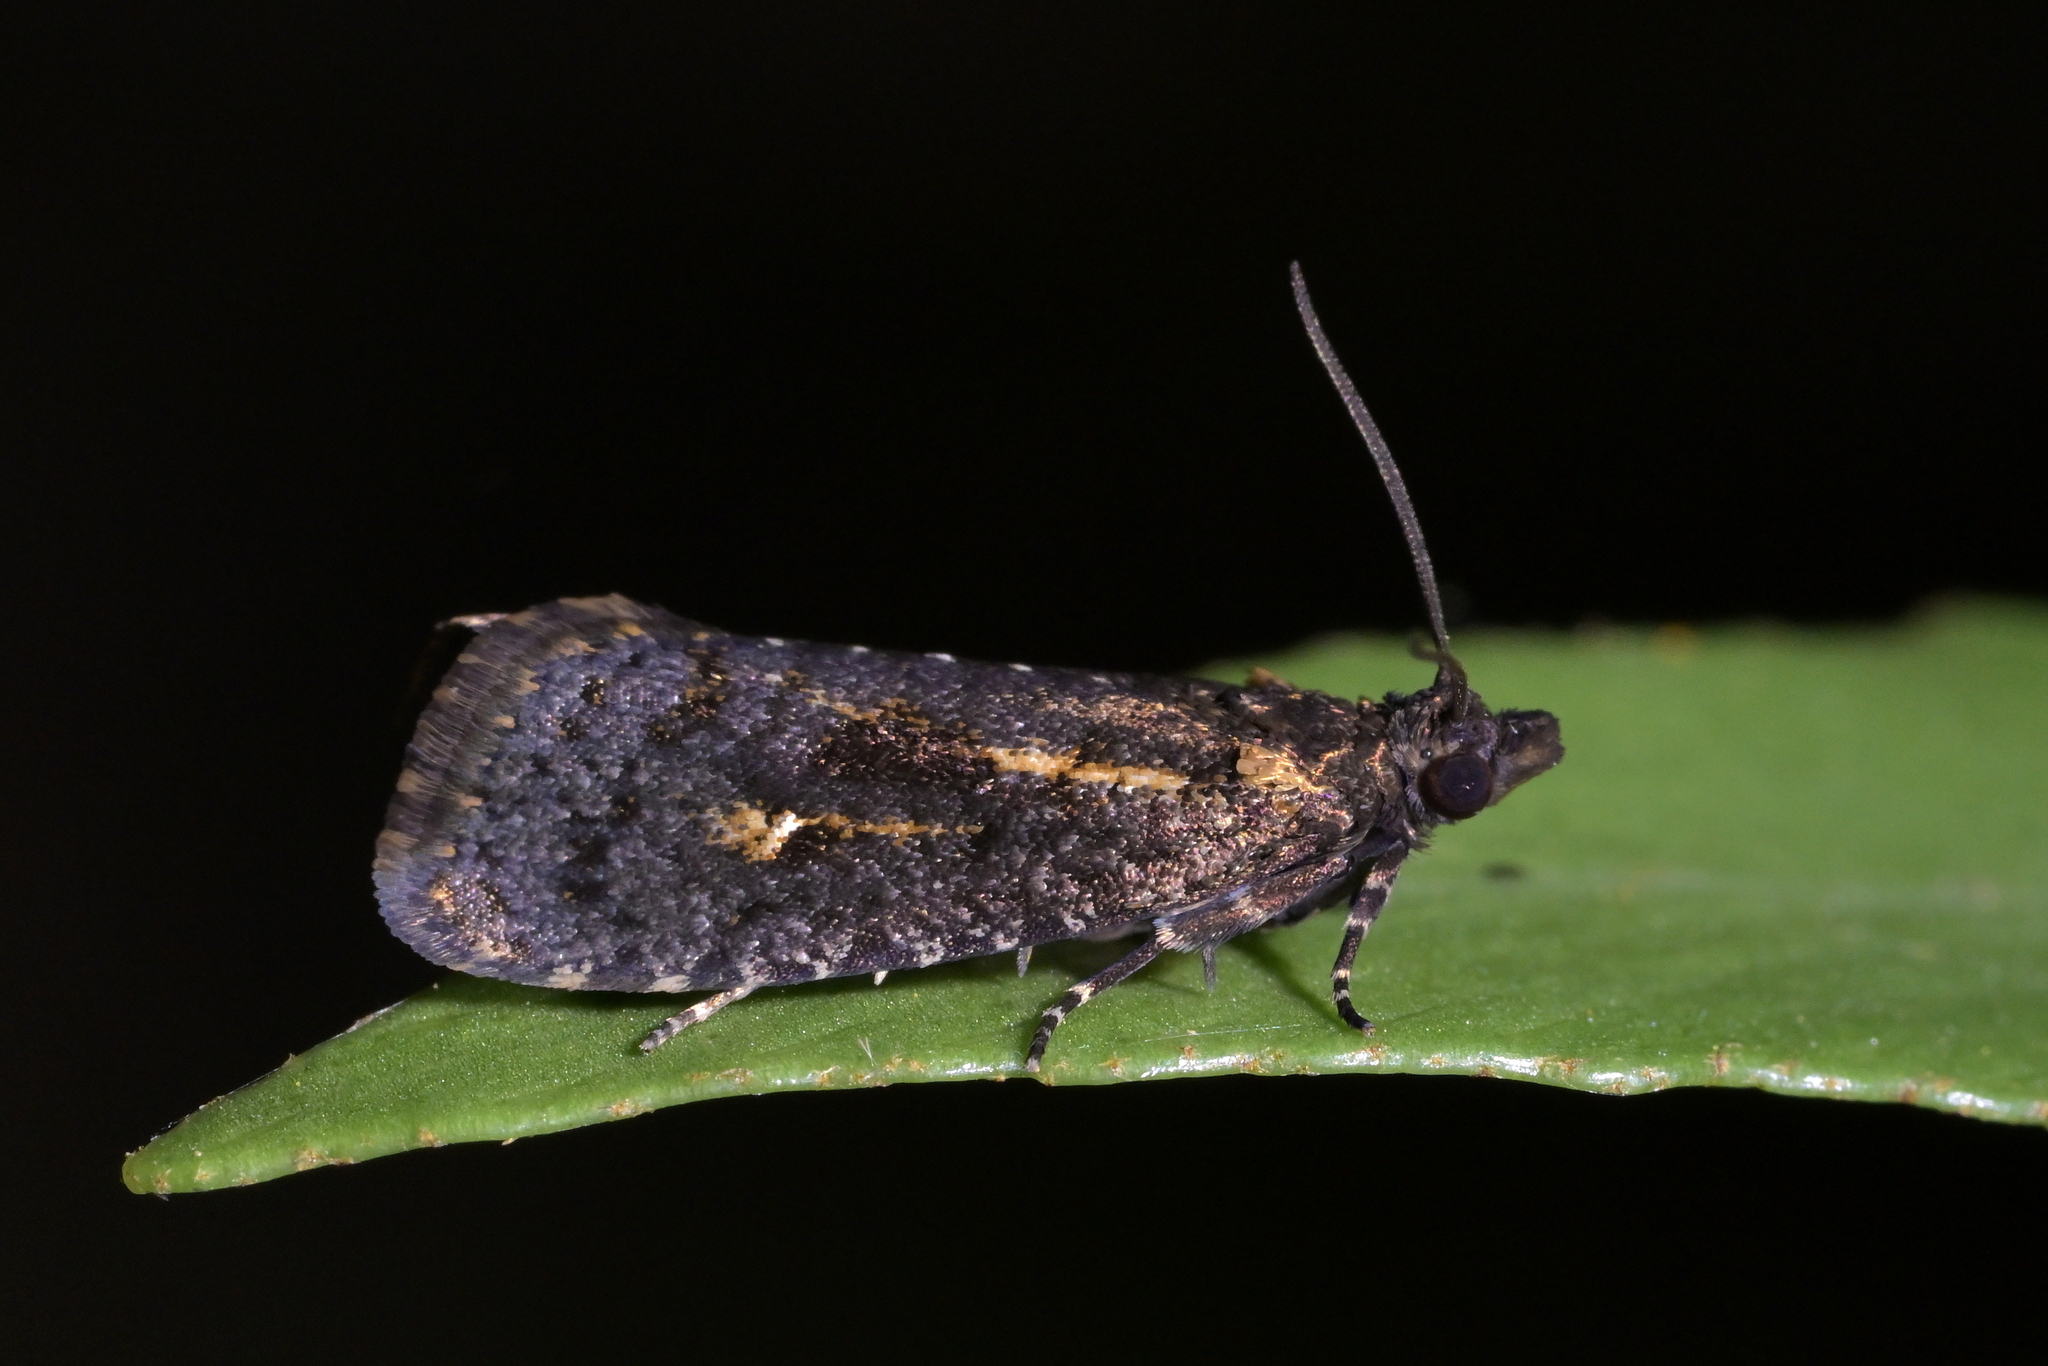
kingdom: Animalia
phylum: Arthropoda
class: Insecta
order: Lepidoptera
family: Tortricidae
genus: Cryptaspasma
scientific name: Cryptaspasma querula
